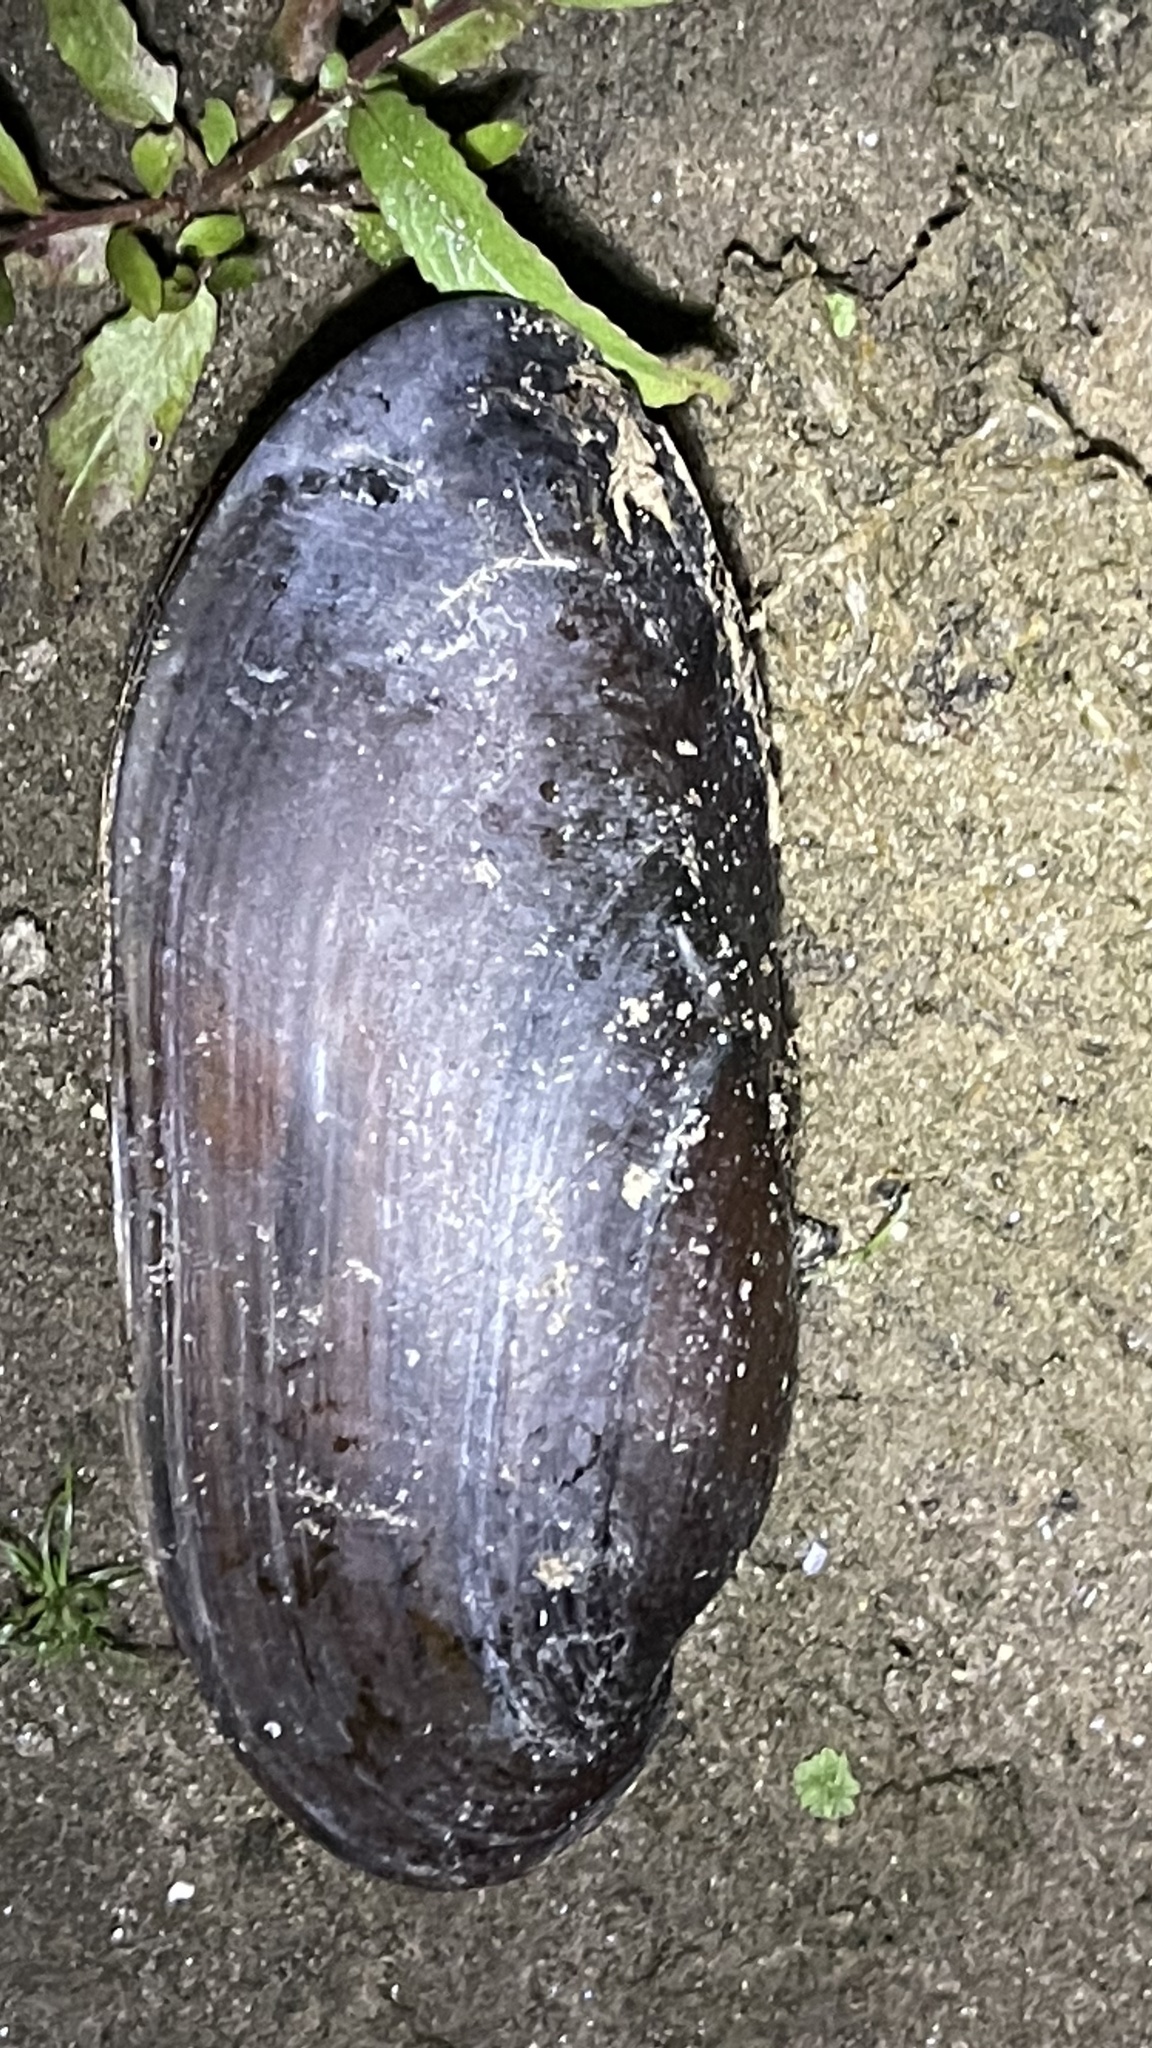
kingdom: Animalia
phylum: Mollusca
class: Bivalvia
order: Unionida
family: Unionidae
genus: Ligumia
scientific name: Ligumia recta
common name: Black sandshell
